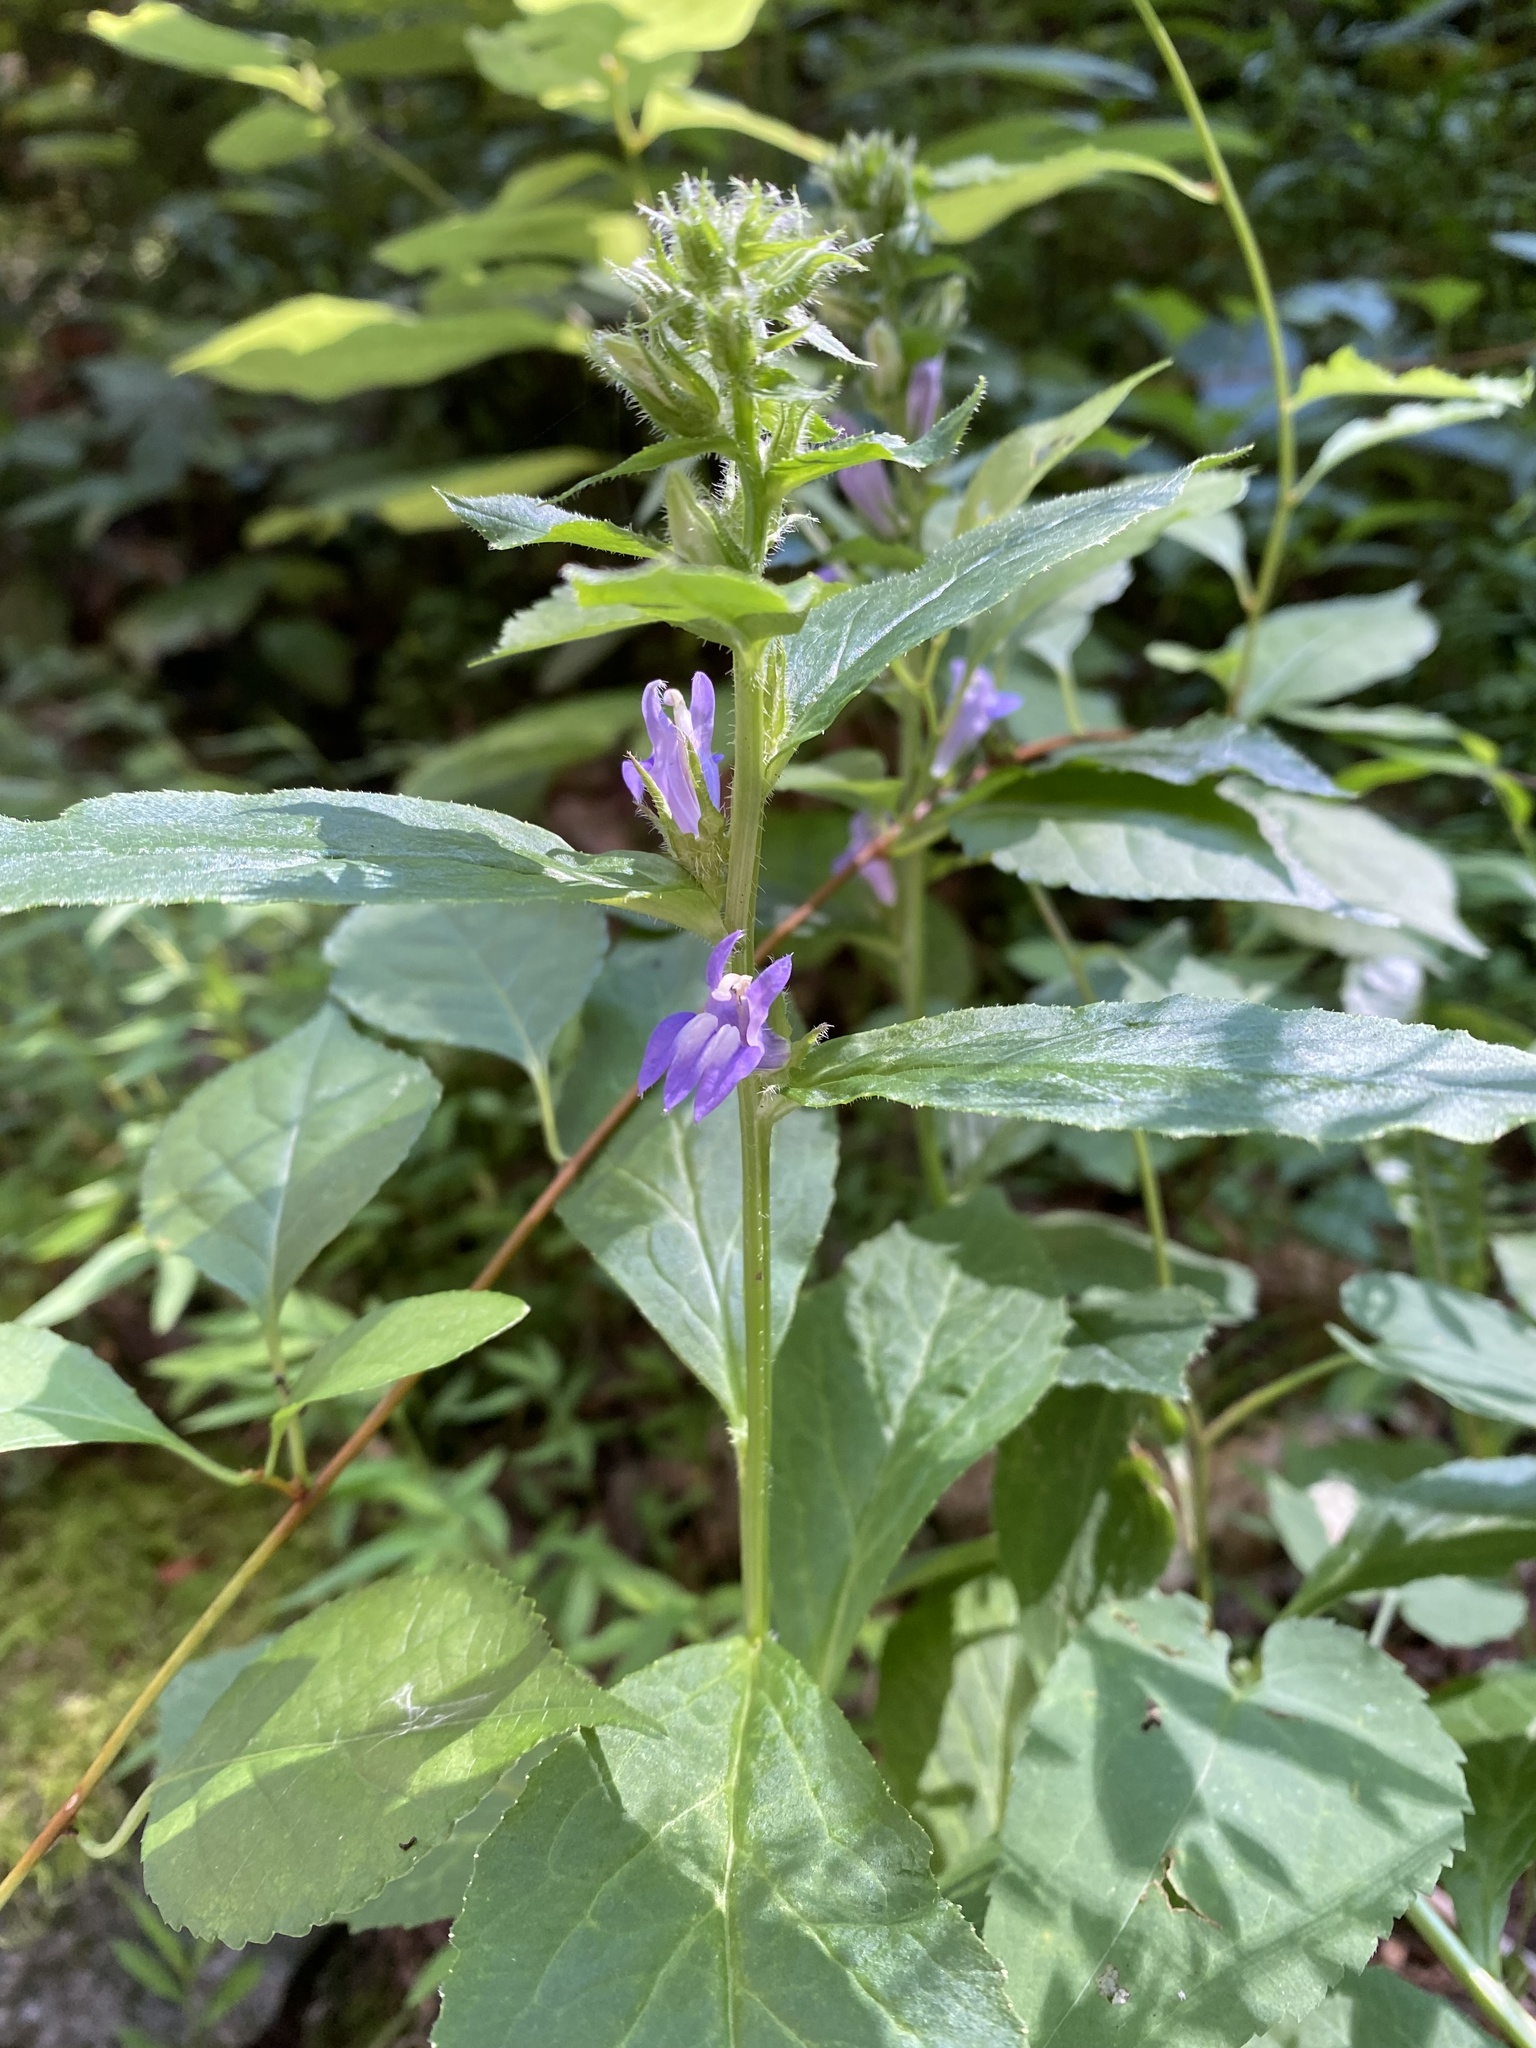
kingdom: Plantae
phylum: Tracheophyta
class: Magnoliopsida
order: Asterales
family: Campanulaceae
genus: Lobelia
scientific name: Lobelia siphilitica
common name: Great lobelia
